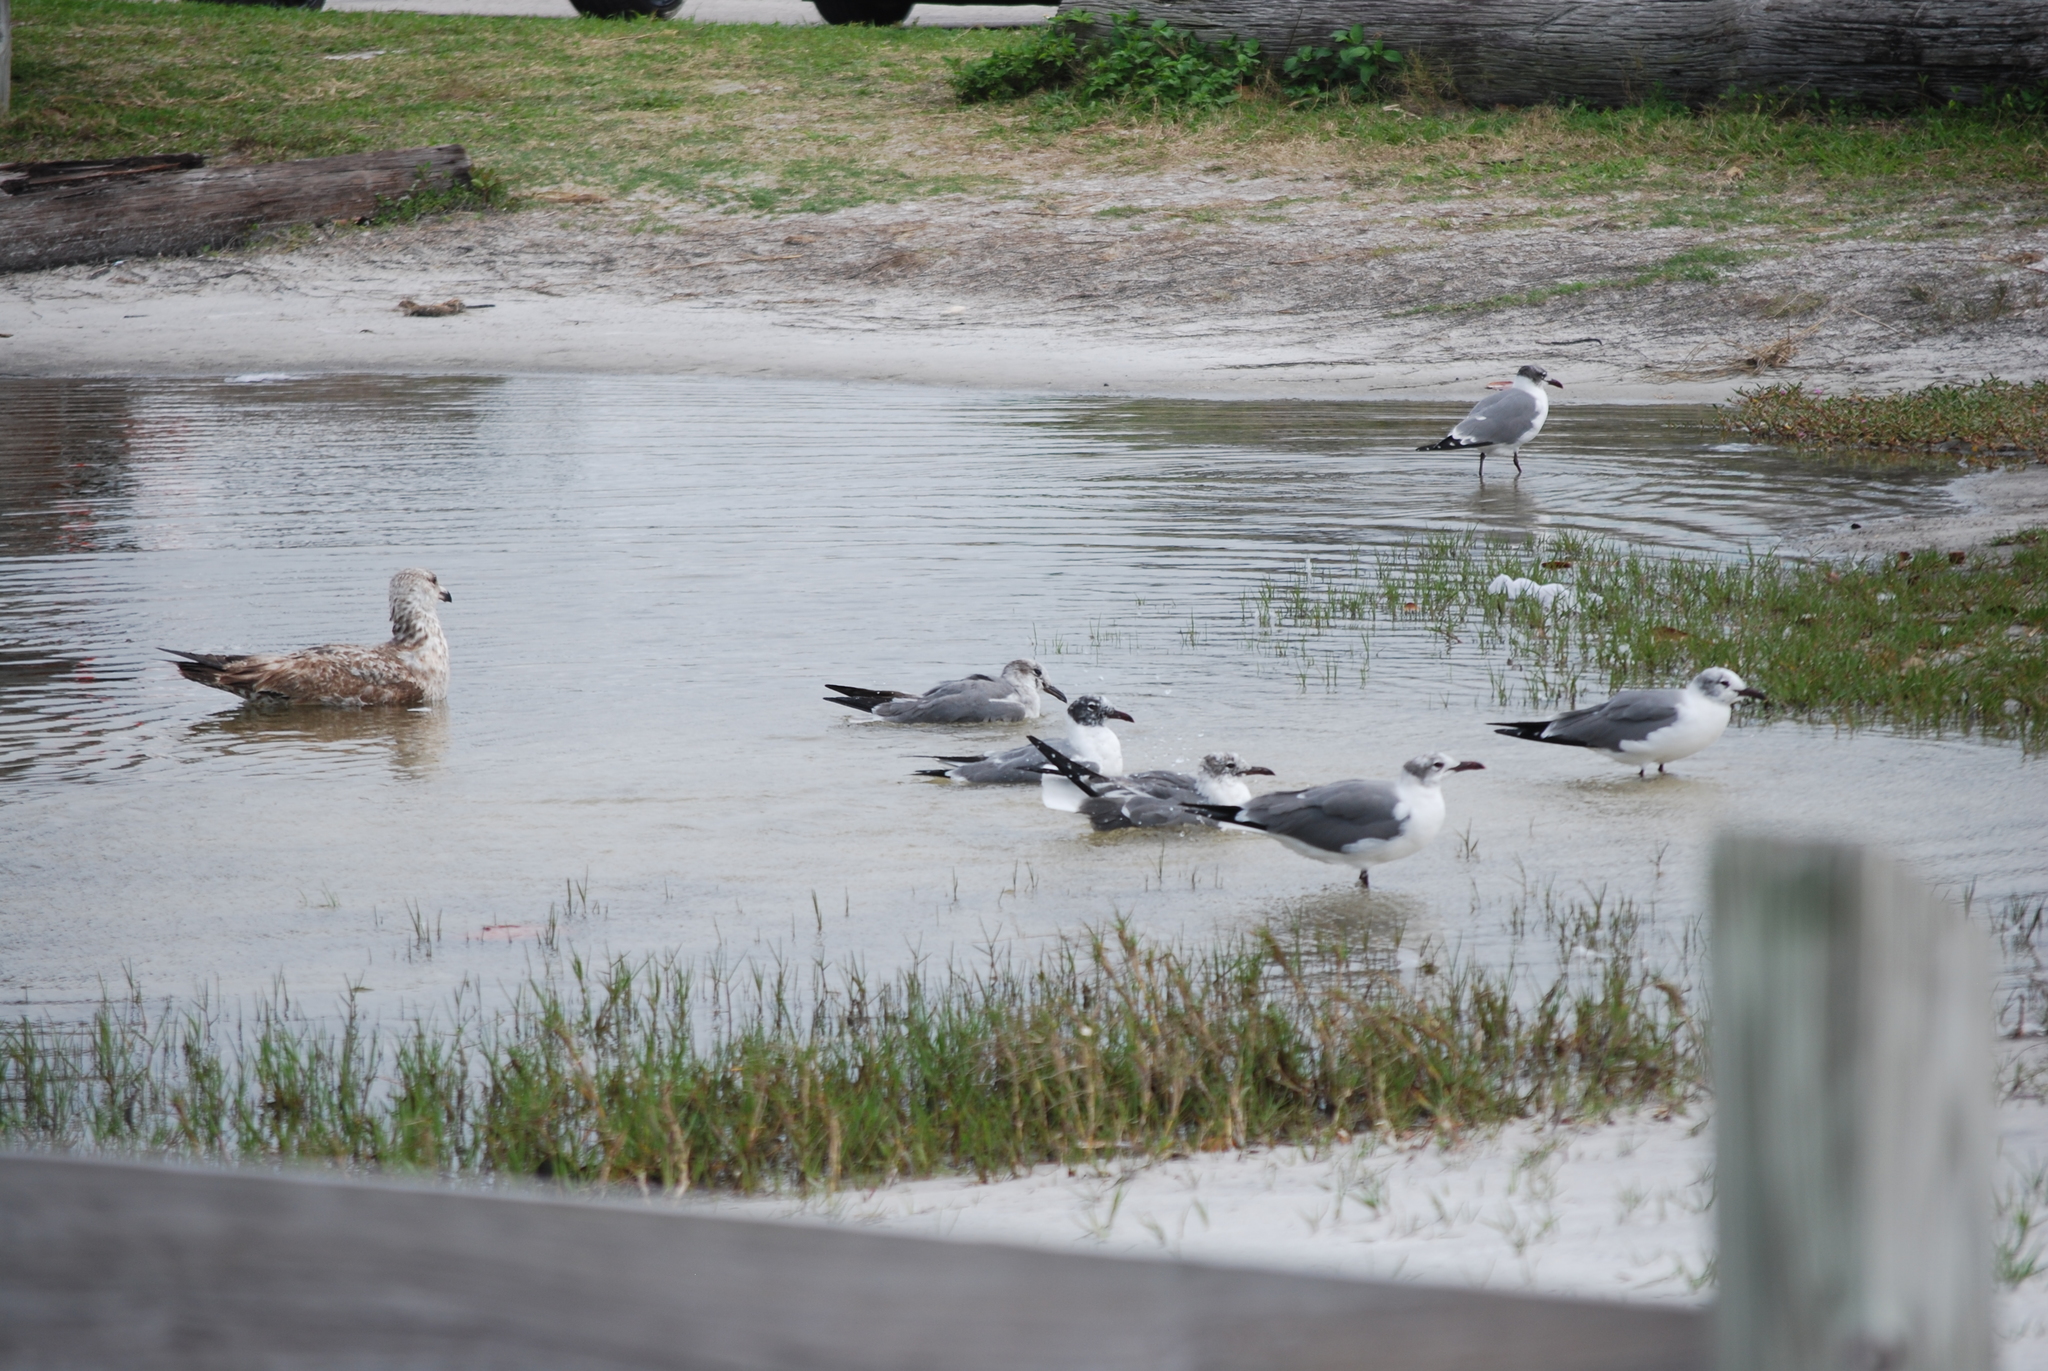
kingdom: Animalia
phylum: Chordata
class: Aves
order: Charadriiformes
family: Laridae
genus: Leucophaeus
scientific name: Leucophaeus atricilla
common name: Laughing gull
